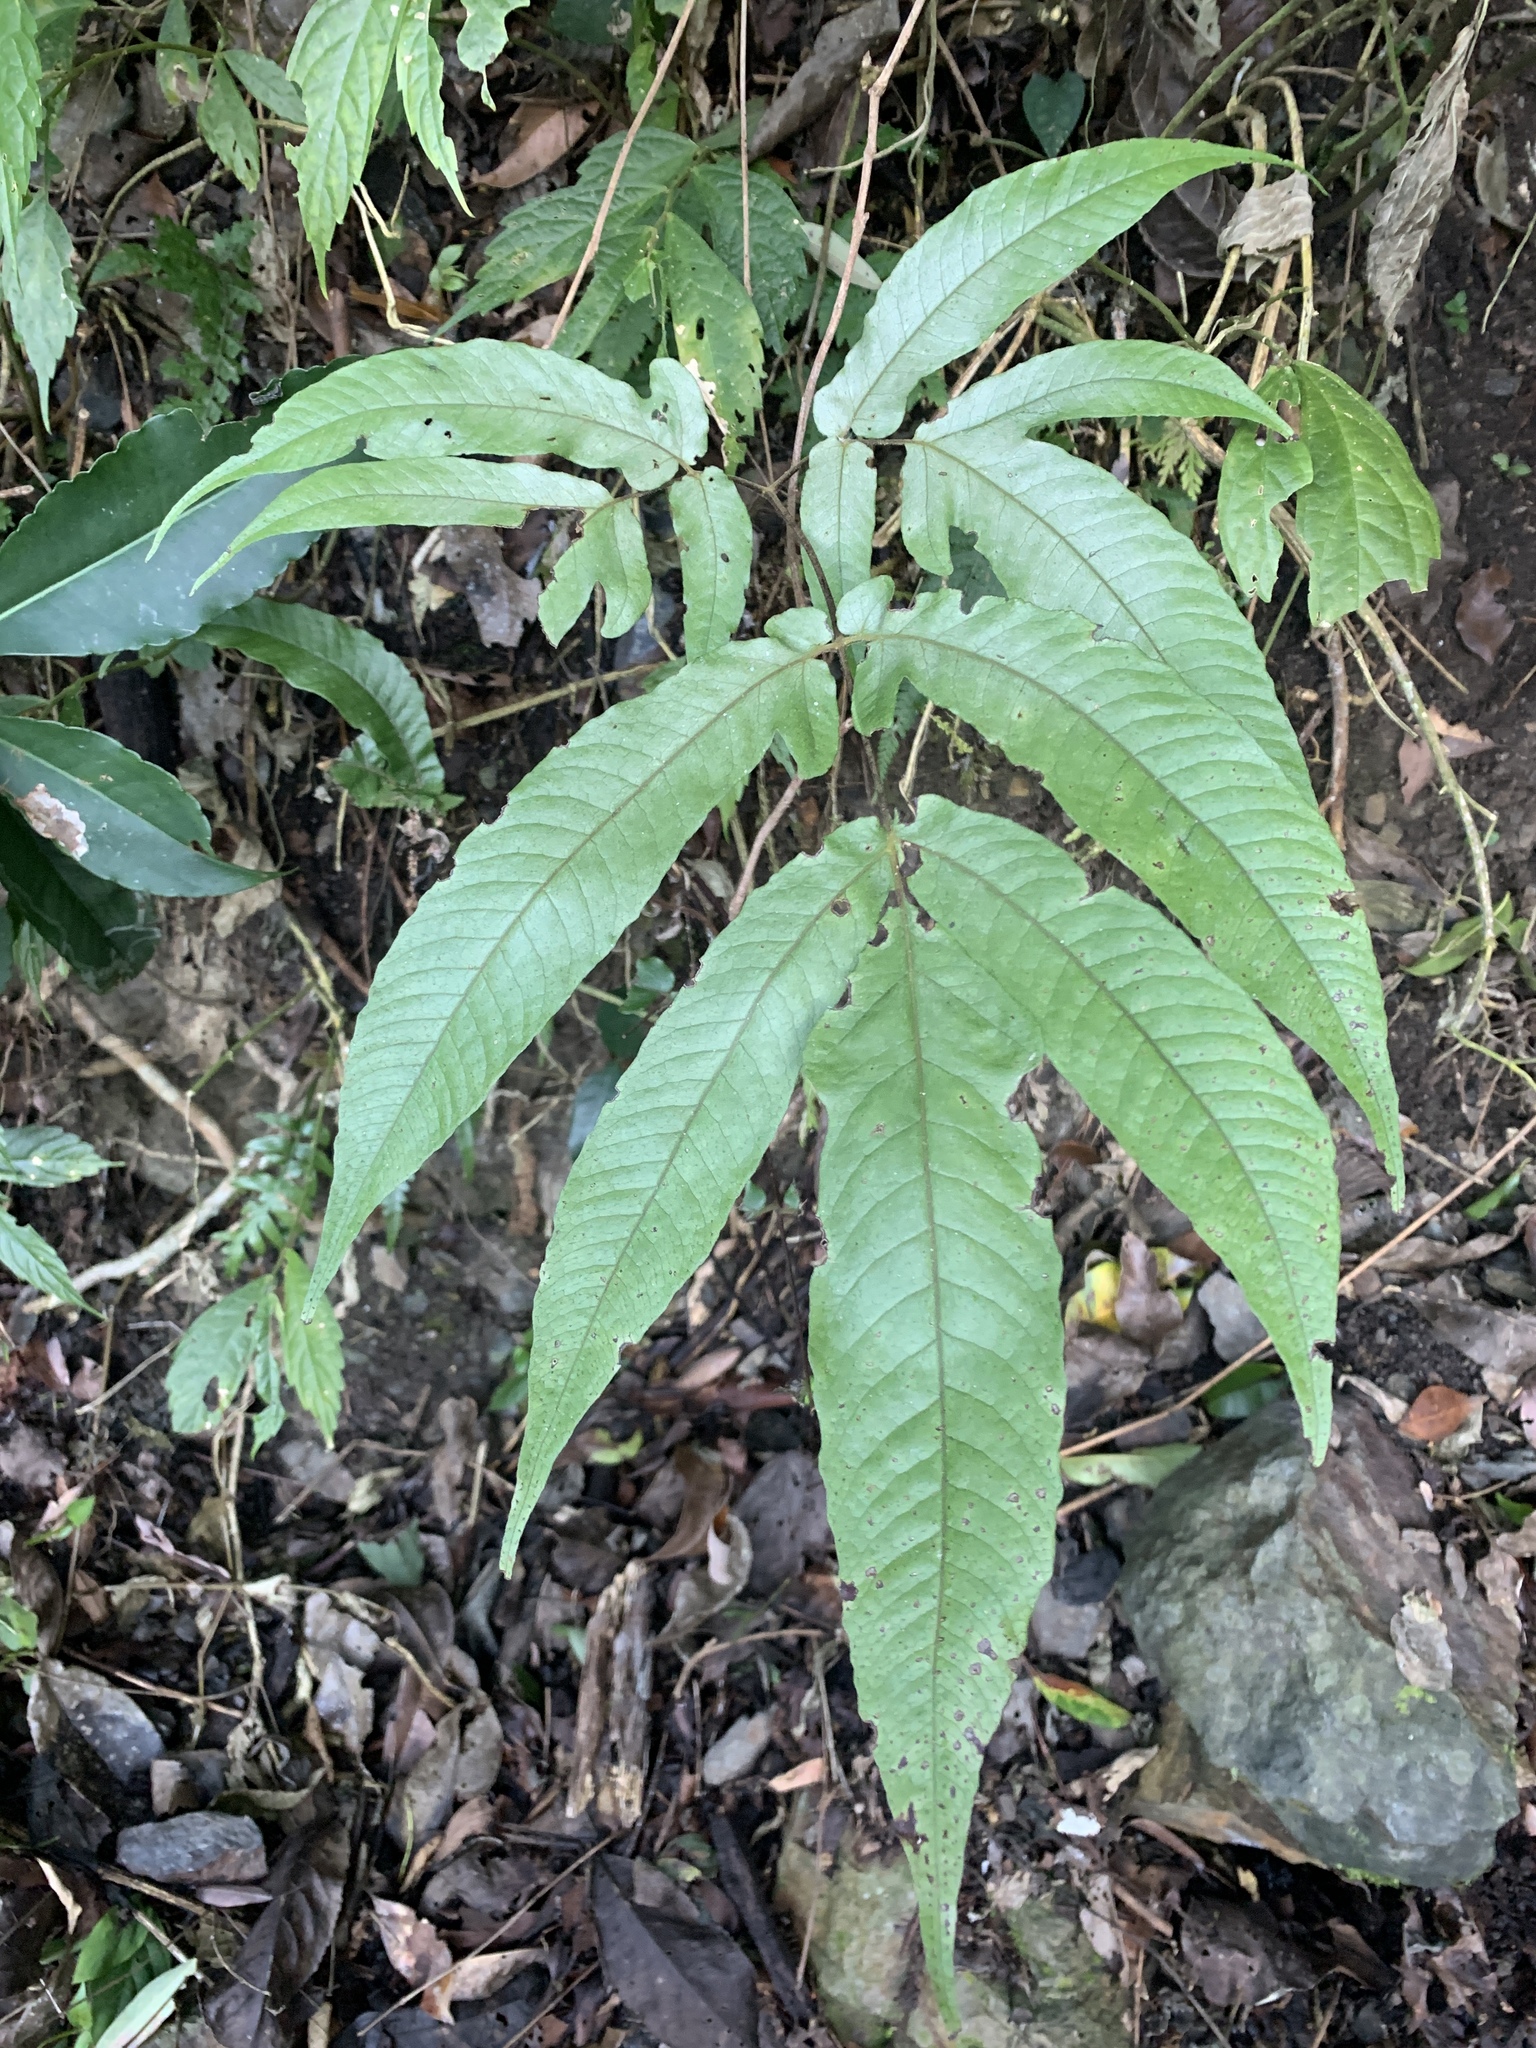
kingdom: Plantae
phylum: Tracheophyta
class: Polypodiopsida
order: Polypodiales
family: Tectariaceae
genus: Tectaria
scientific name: Tectaria simonsii
